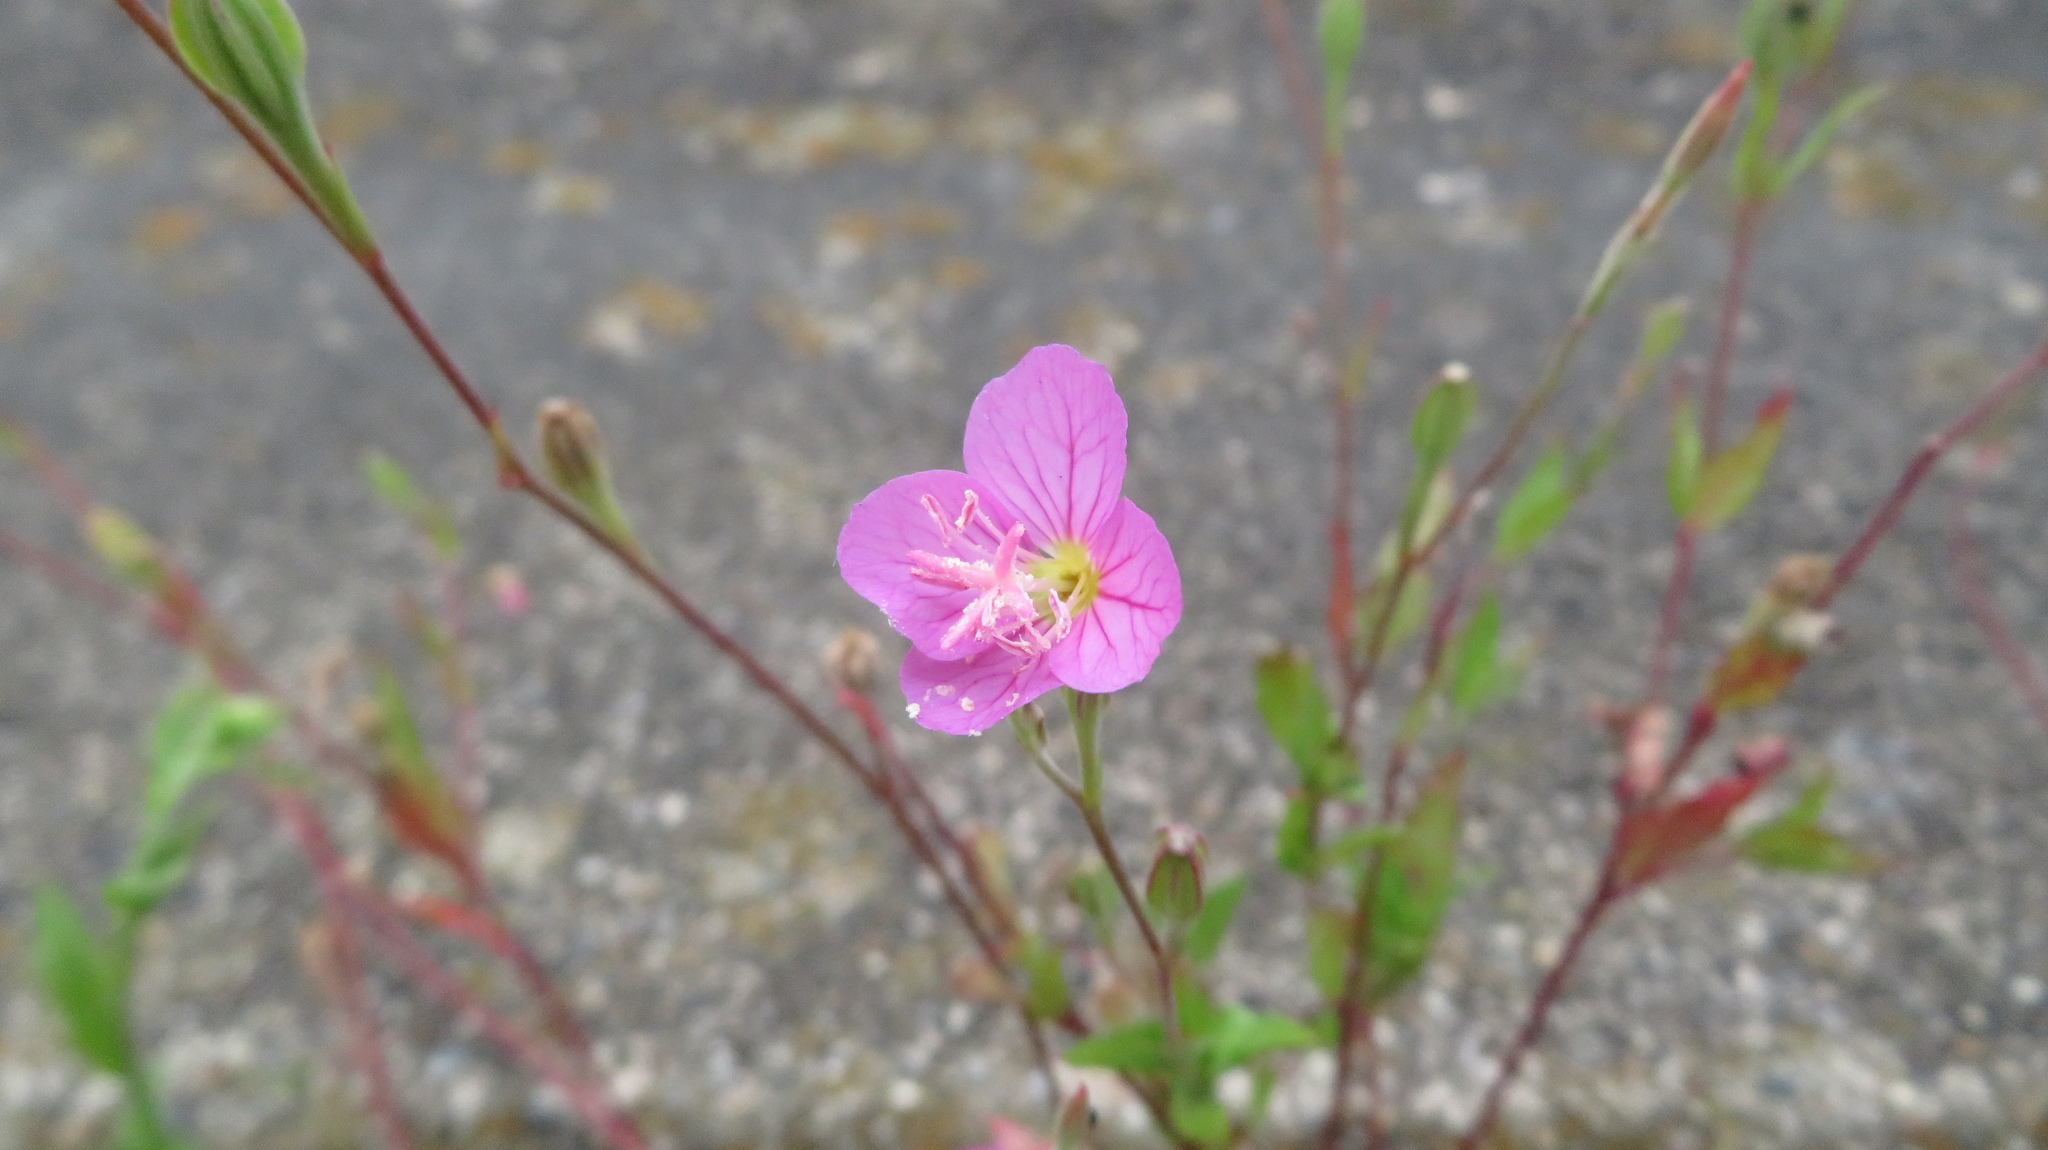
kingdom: Plantae
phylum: Tracheophyta
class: Magnoliopsida
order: Myrtales
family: Onagraceae
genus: Oenothera
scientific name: Oenothera rosea
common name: Rosy evening-primrose
